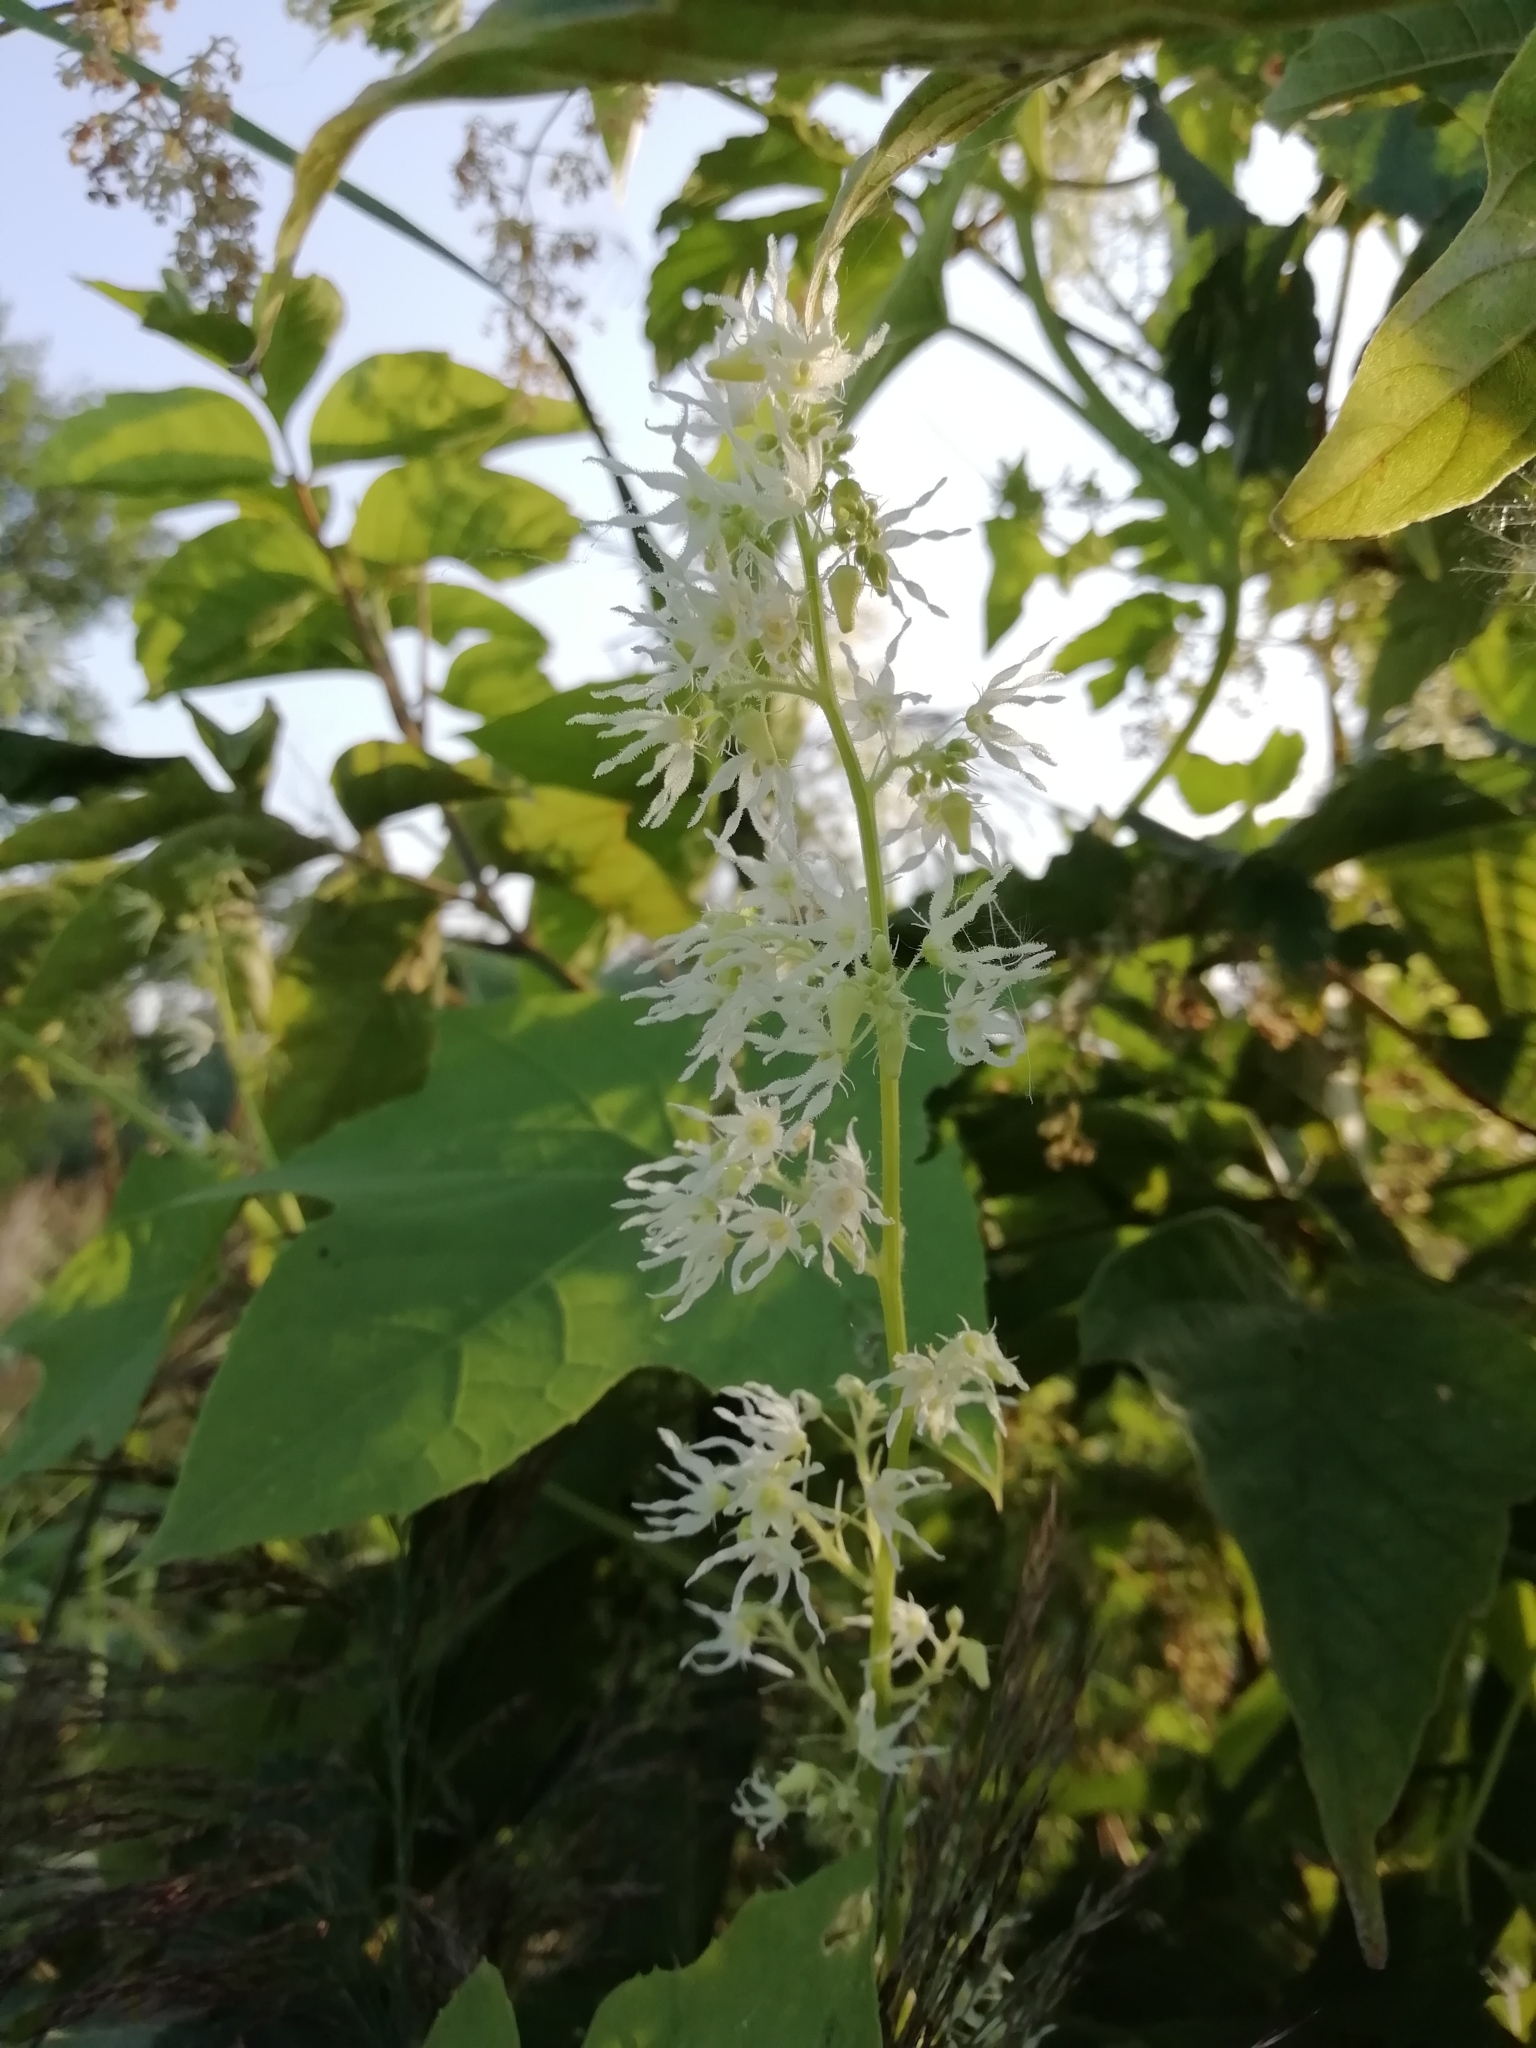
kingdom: Plantae
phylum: Tracheophyta
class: Magnoliopsida
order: Cucurbitales
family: Cucurbitaceae
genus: Echinocystis
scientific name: Echinocystis lobata
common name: Wild cucumber
